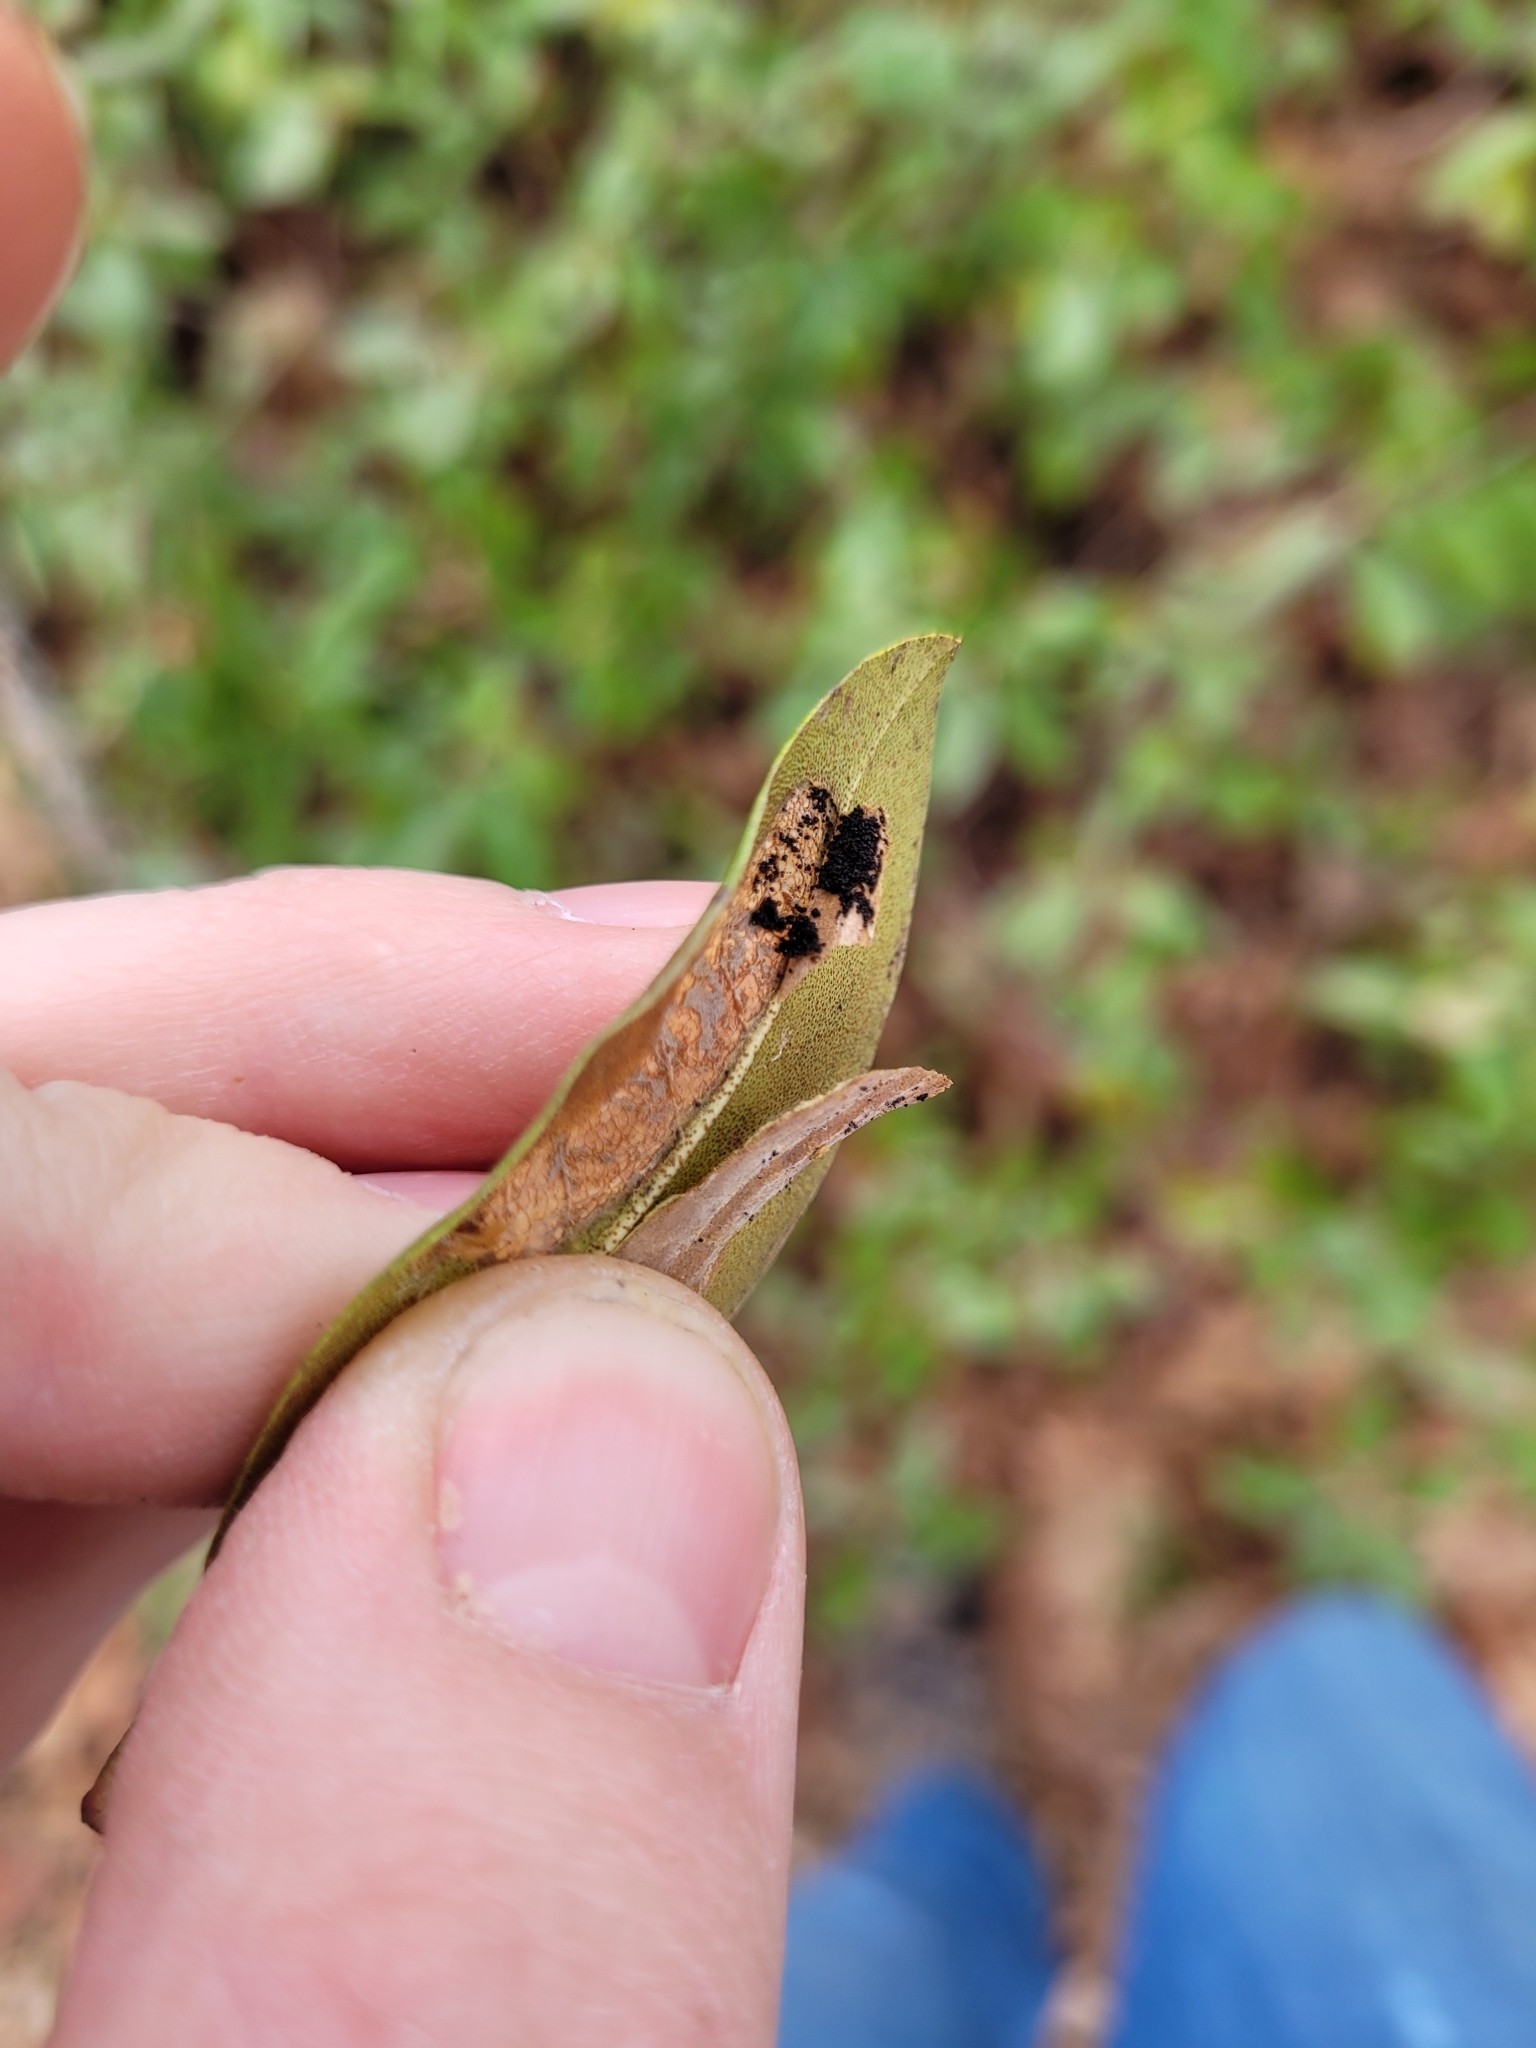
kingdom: Animalia
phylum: Arthropoda
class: Insecta
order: Lepidoptera
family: Gracillariidae
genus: Phyllonorycter
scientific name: Phyllonorycter rhododendrella
